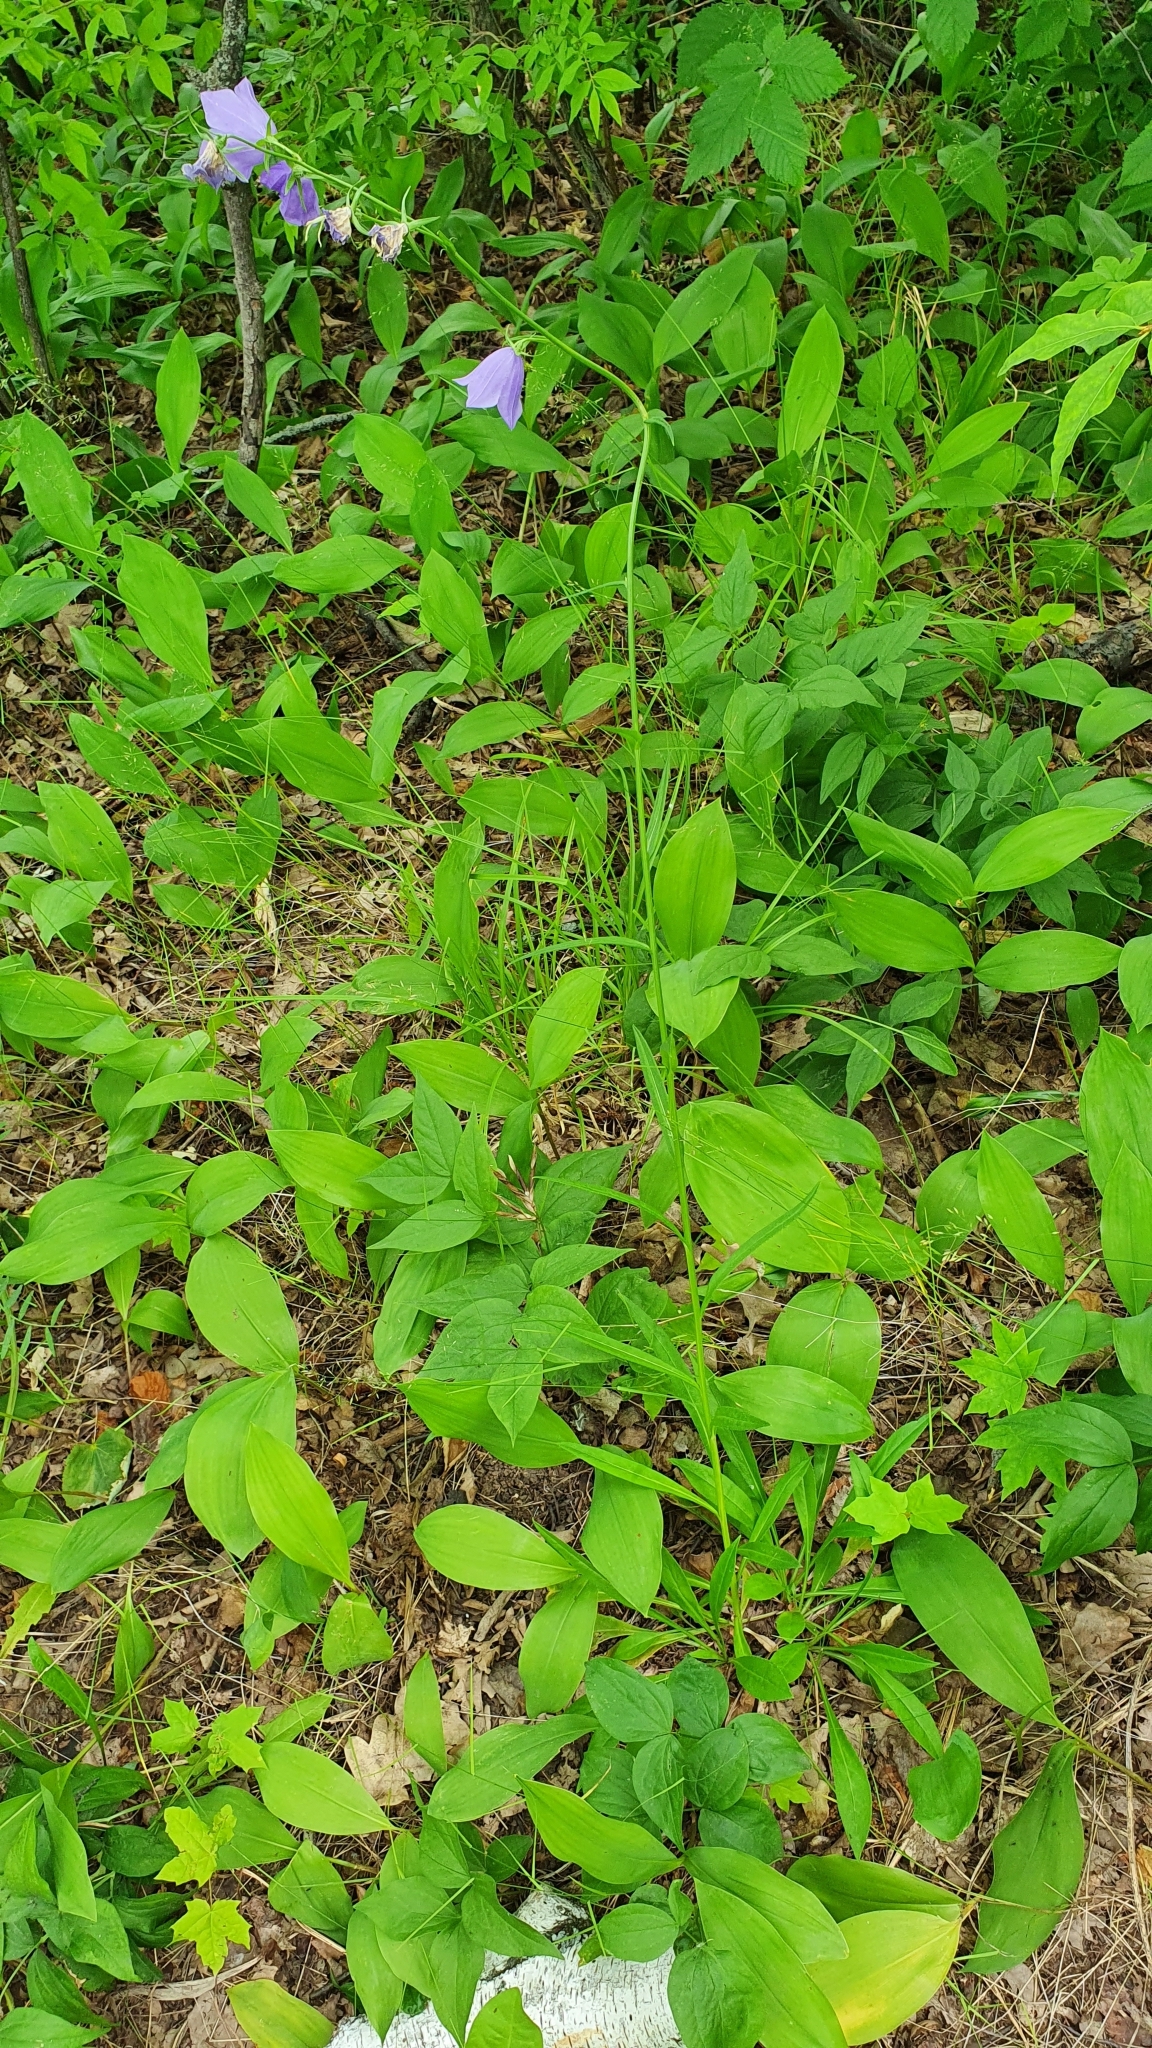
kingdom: Plantae
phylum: Tracheophyta
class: Magnoliopsida
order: Asterales
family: Campanulaceae
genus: Campanula
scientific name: Campanula persicifolia
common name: Peach-leaved bellflower
